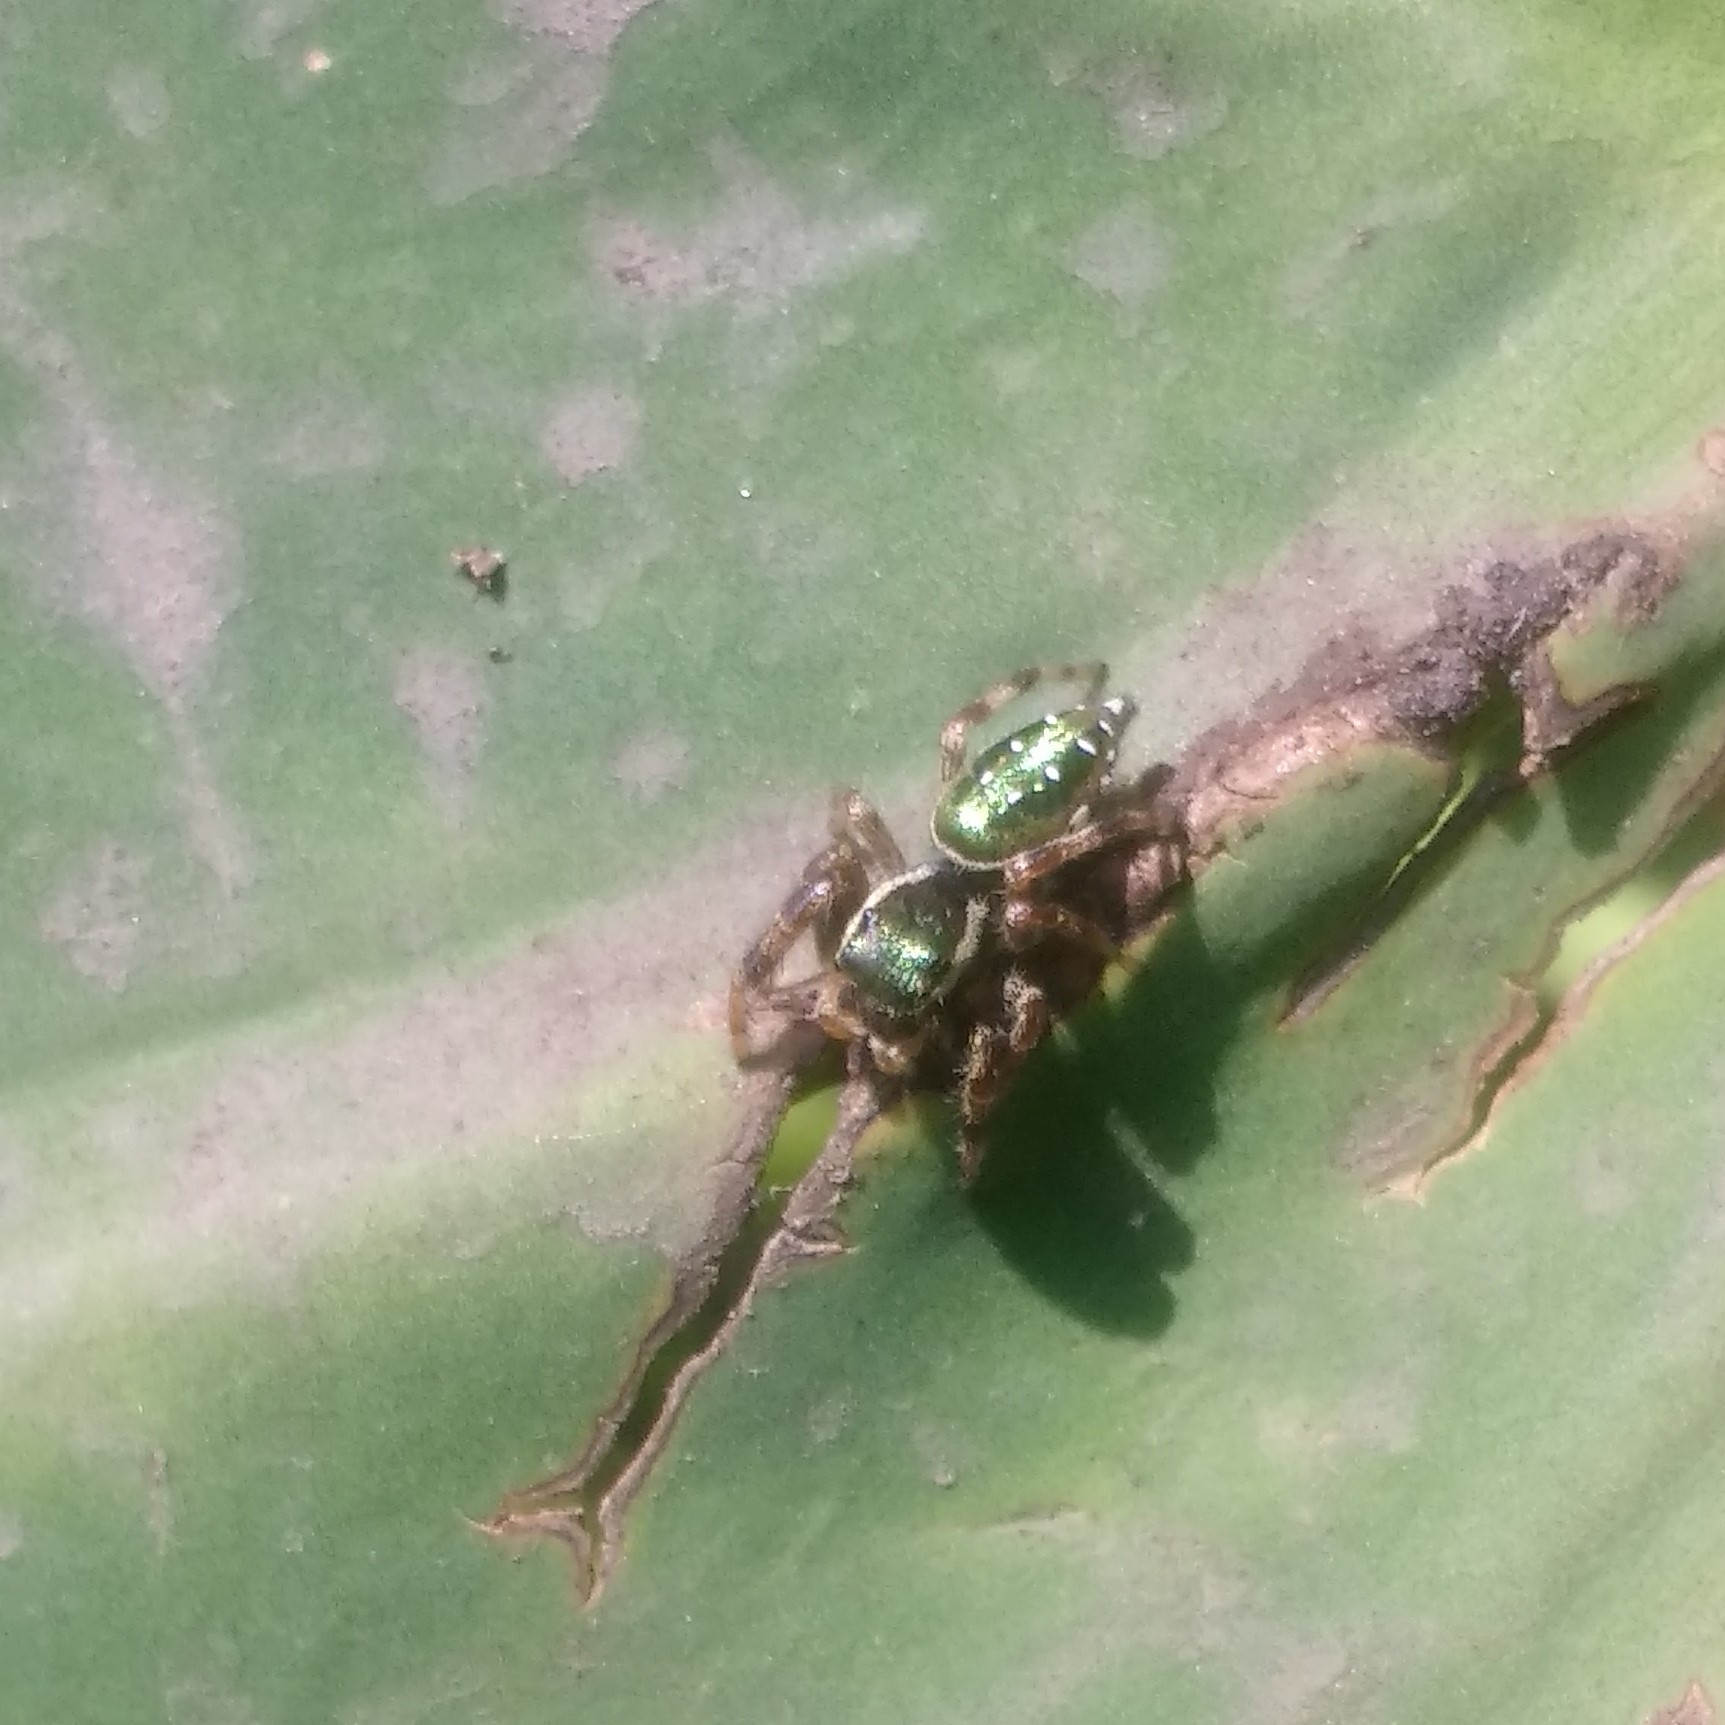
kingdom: Animalia
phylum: Arthropoda
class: Arachnida
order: Araneae
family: Salticidae
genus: Paraphidippus
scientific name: Paraphidippus aurantius
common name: Jumping spiders
